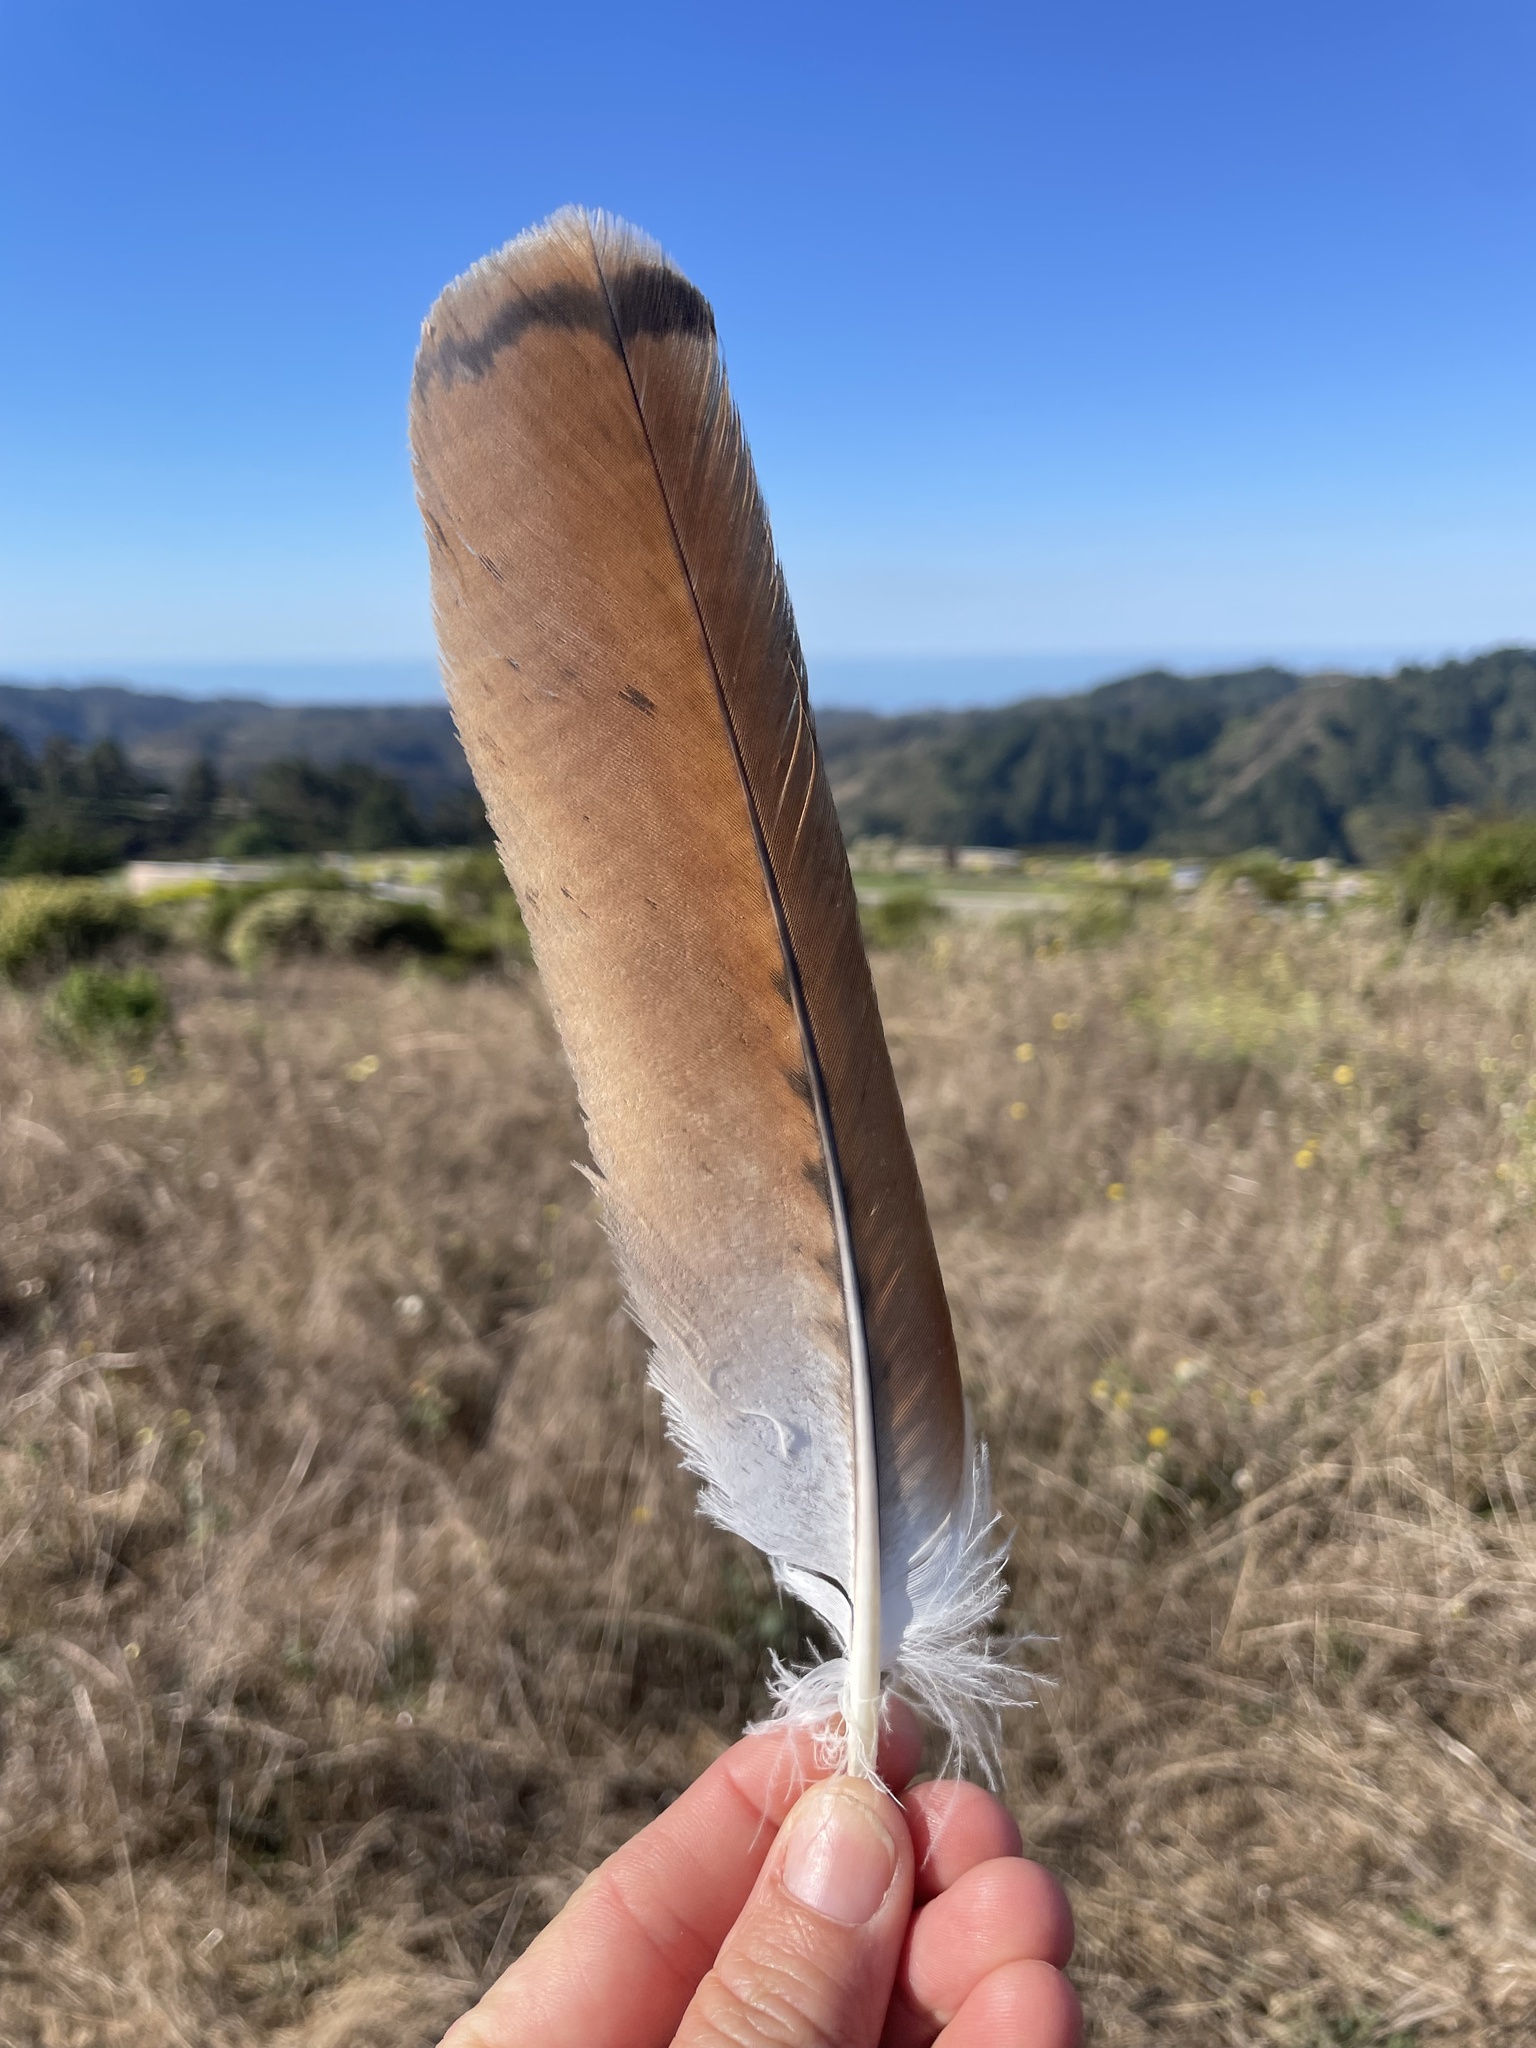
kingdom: Animalia
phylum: Chordata
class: Aves
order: Accipitriformes
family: Accipitridae
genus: Buteo
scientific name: Buteo jamaicensis
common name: Red-tailed hawk
